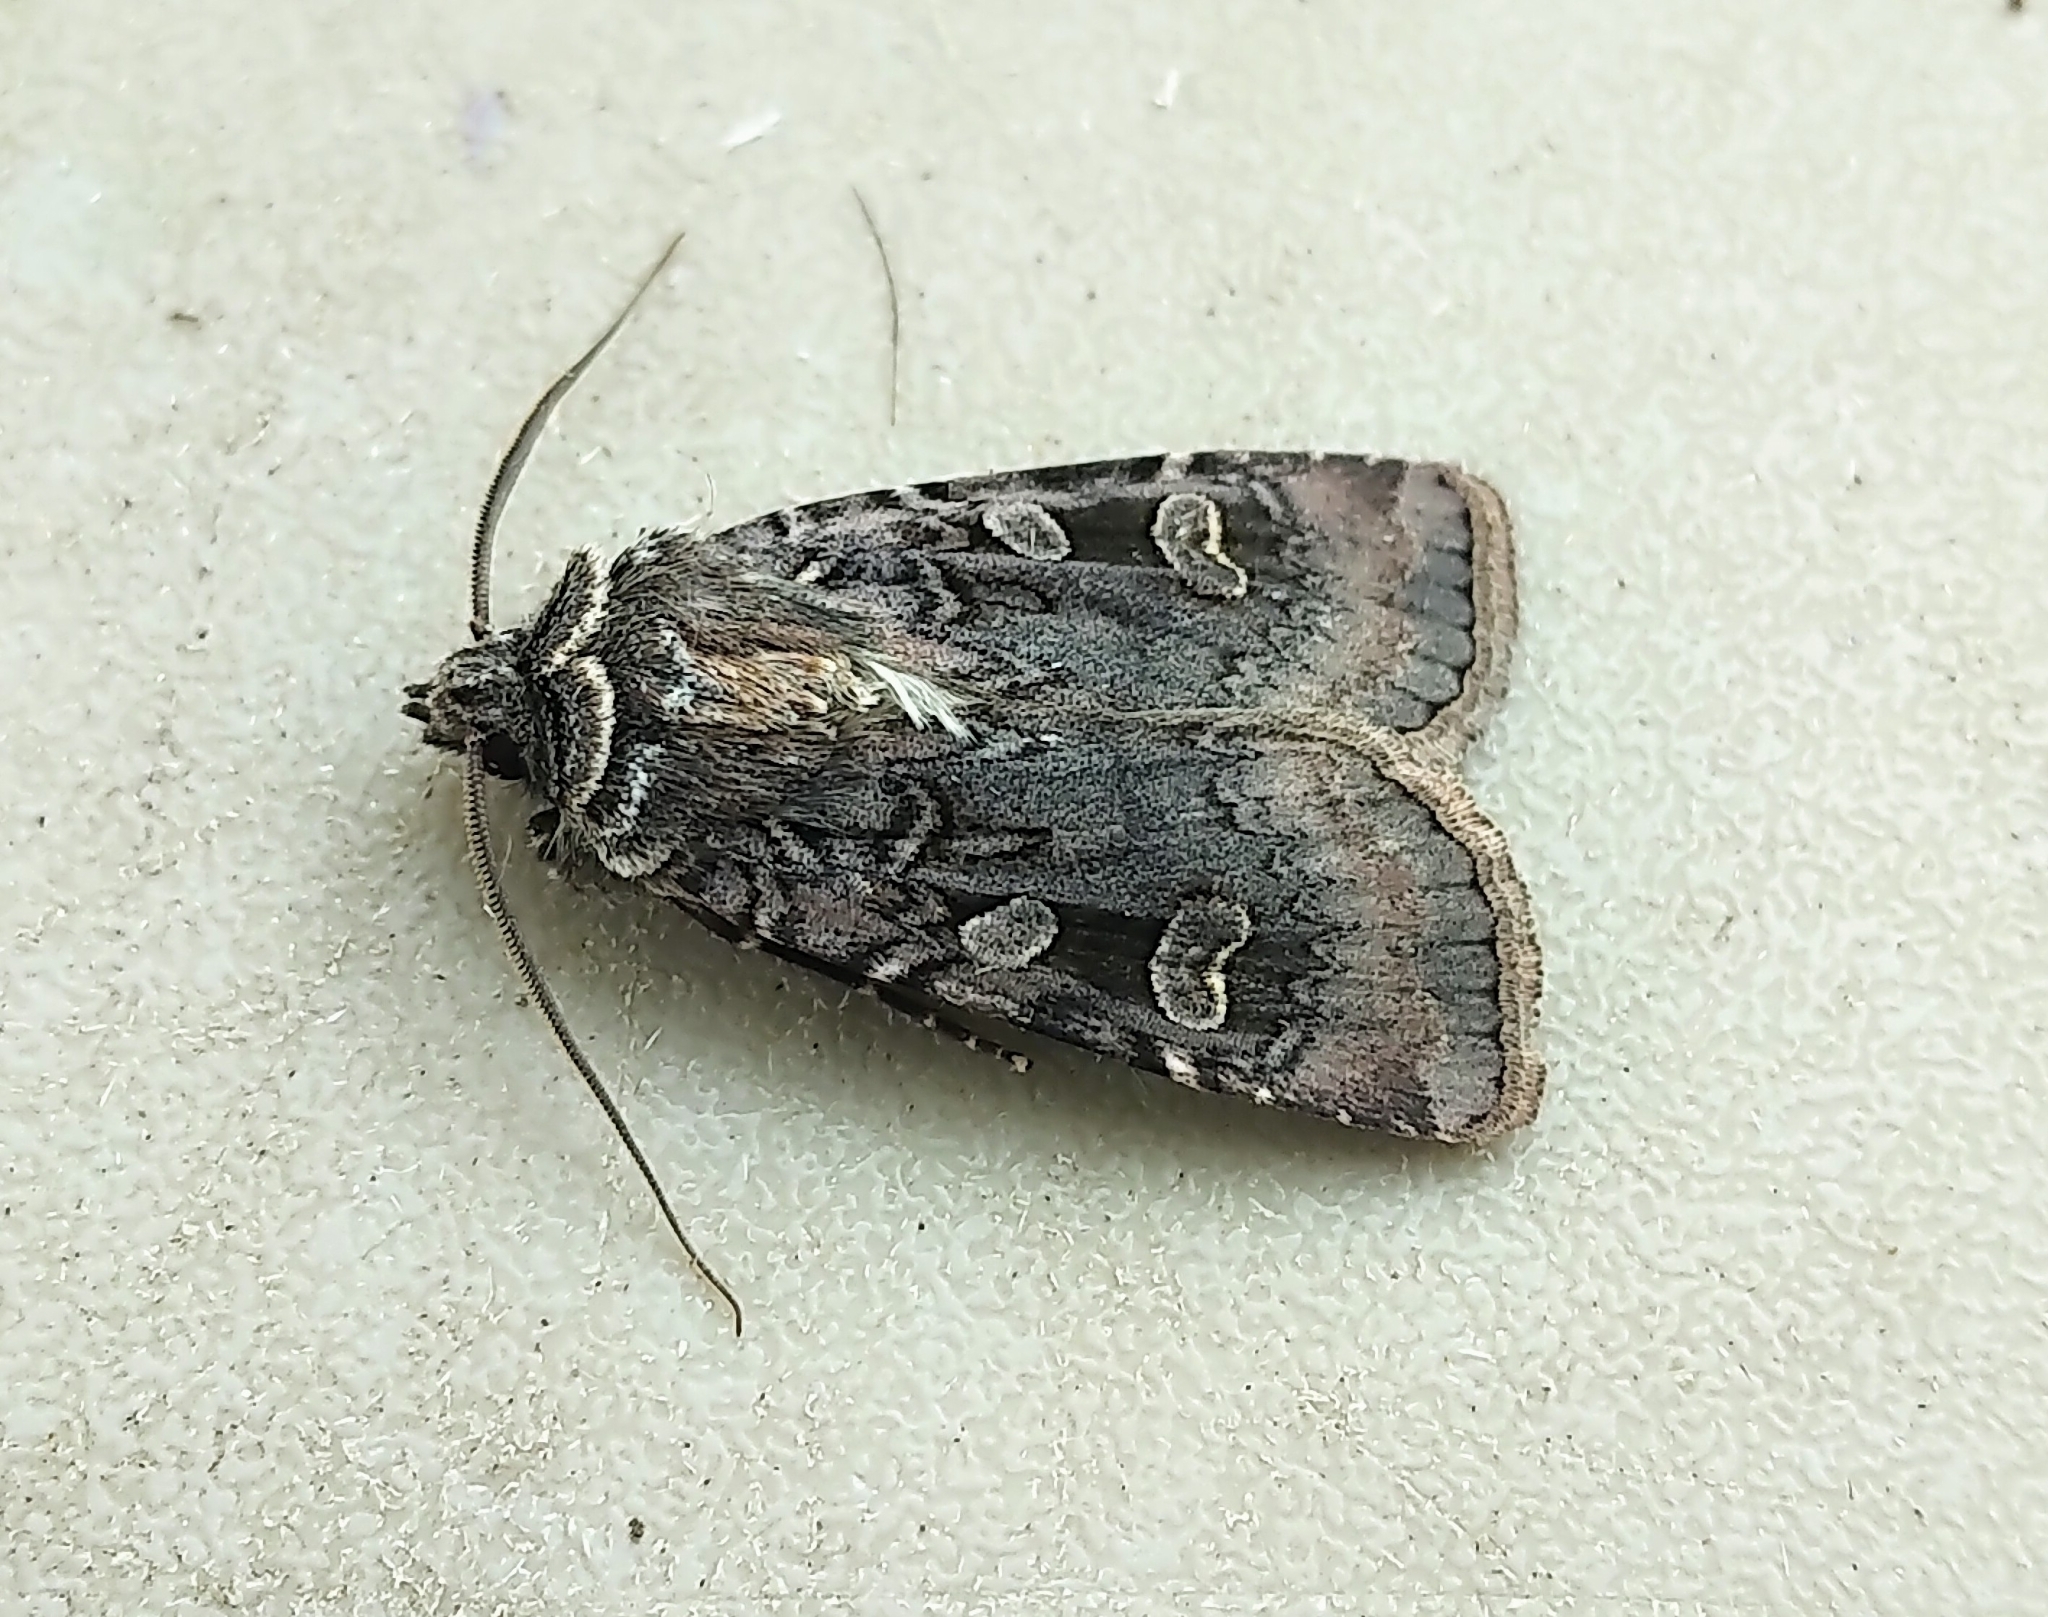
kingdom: Animalia
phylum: Arthropoda
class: Insecta
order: Lepidoptera
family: Noctuidae
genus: Euxoa
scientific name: Euxoa declarata
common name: Clear dart
